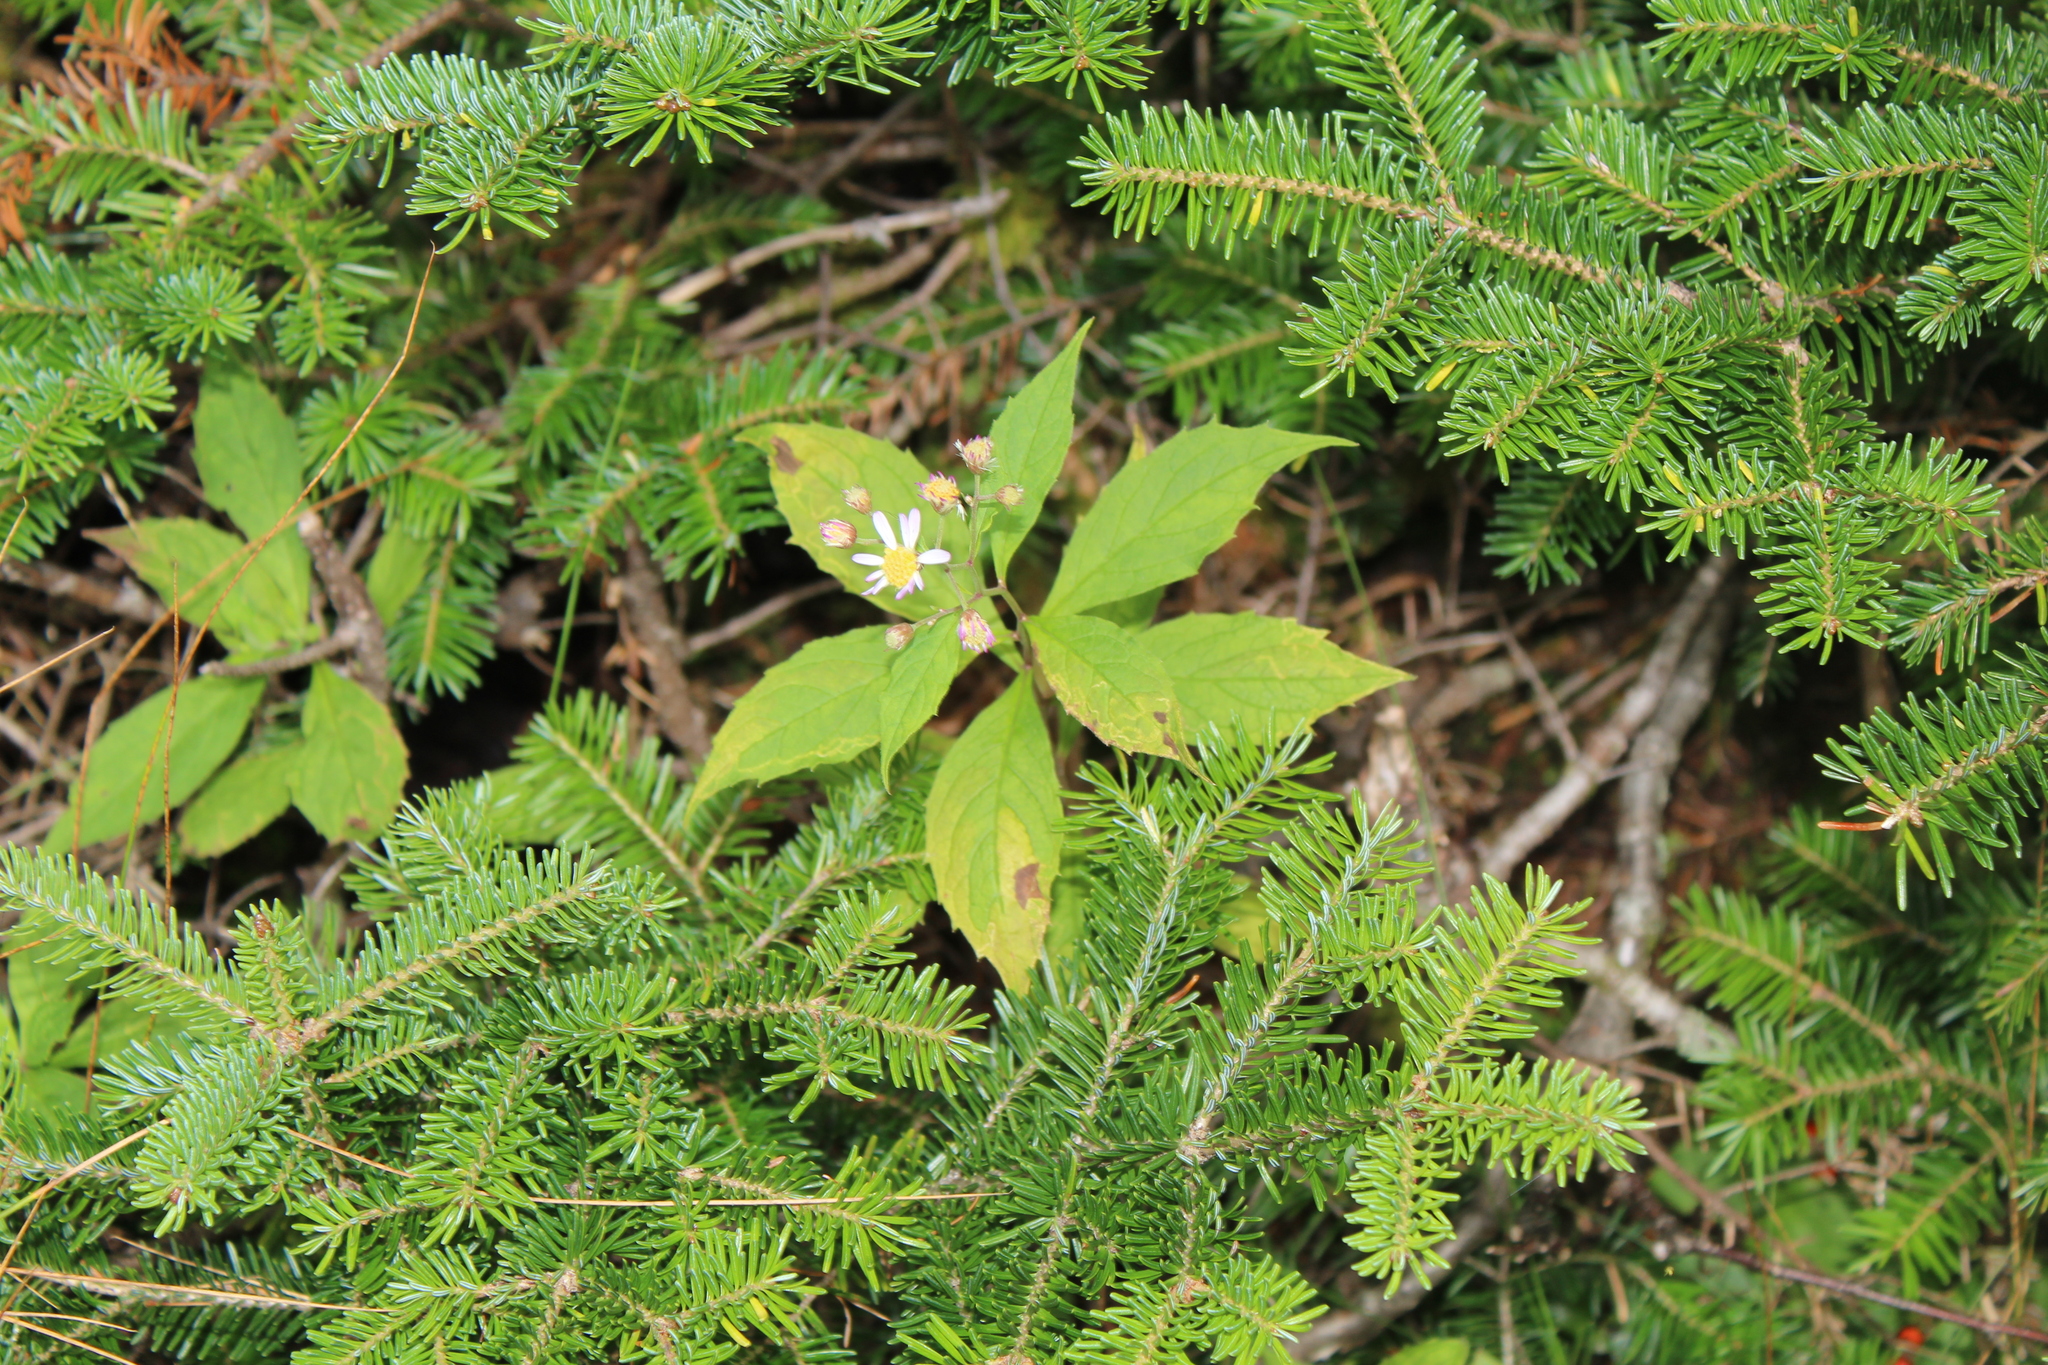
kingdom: Plantae
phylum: Tracheophyta
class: Magnoliopsida
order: Asterales
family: Asteraceae
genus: Oclemena
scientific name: Oclemena acuminata
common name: Mountain aster
